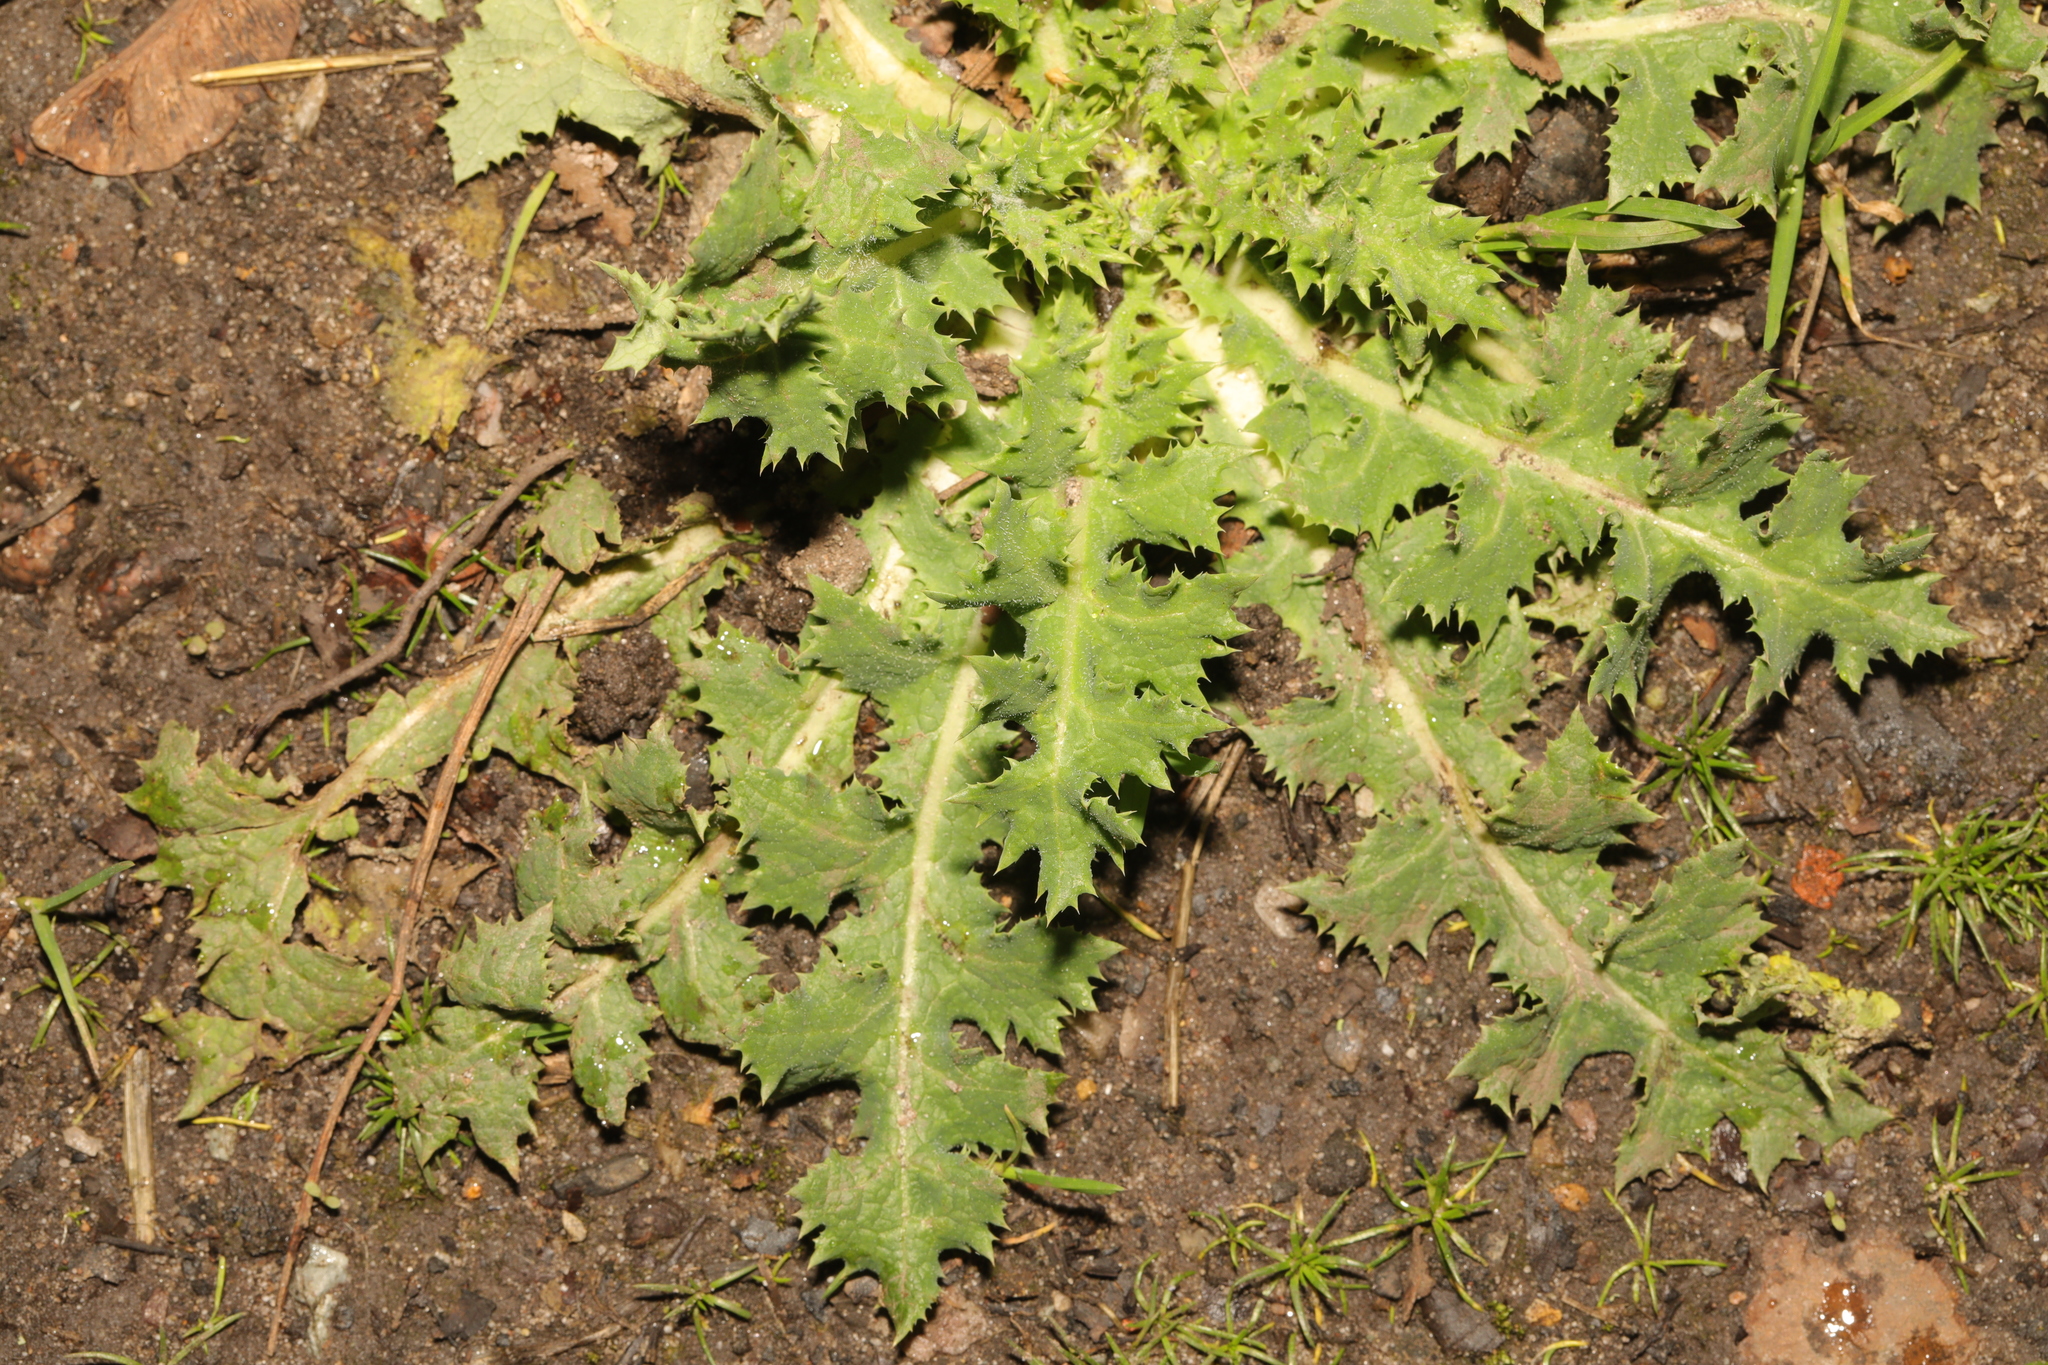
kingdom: Plantae
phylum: Tracheophyta
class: Magnoliopsida
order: Asterales
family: Asteraceae
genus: Sonchus
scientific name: Sonchus asper
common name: Prickly sow-thistle
